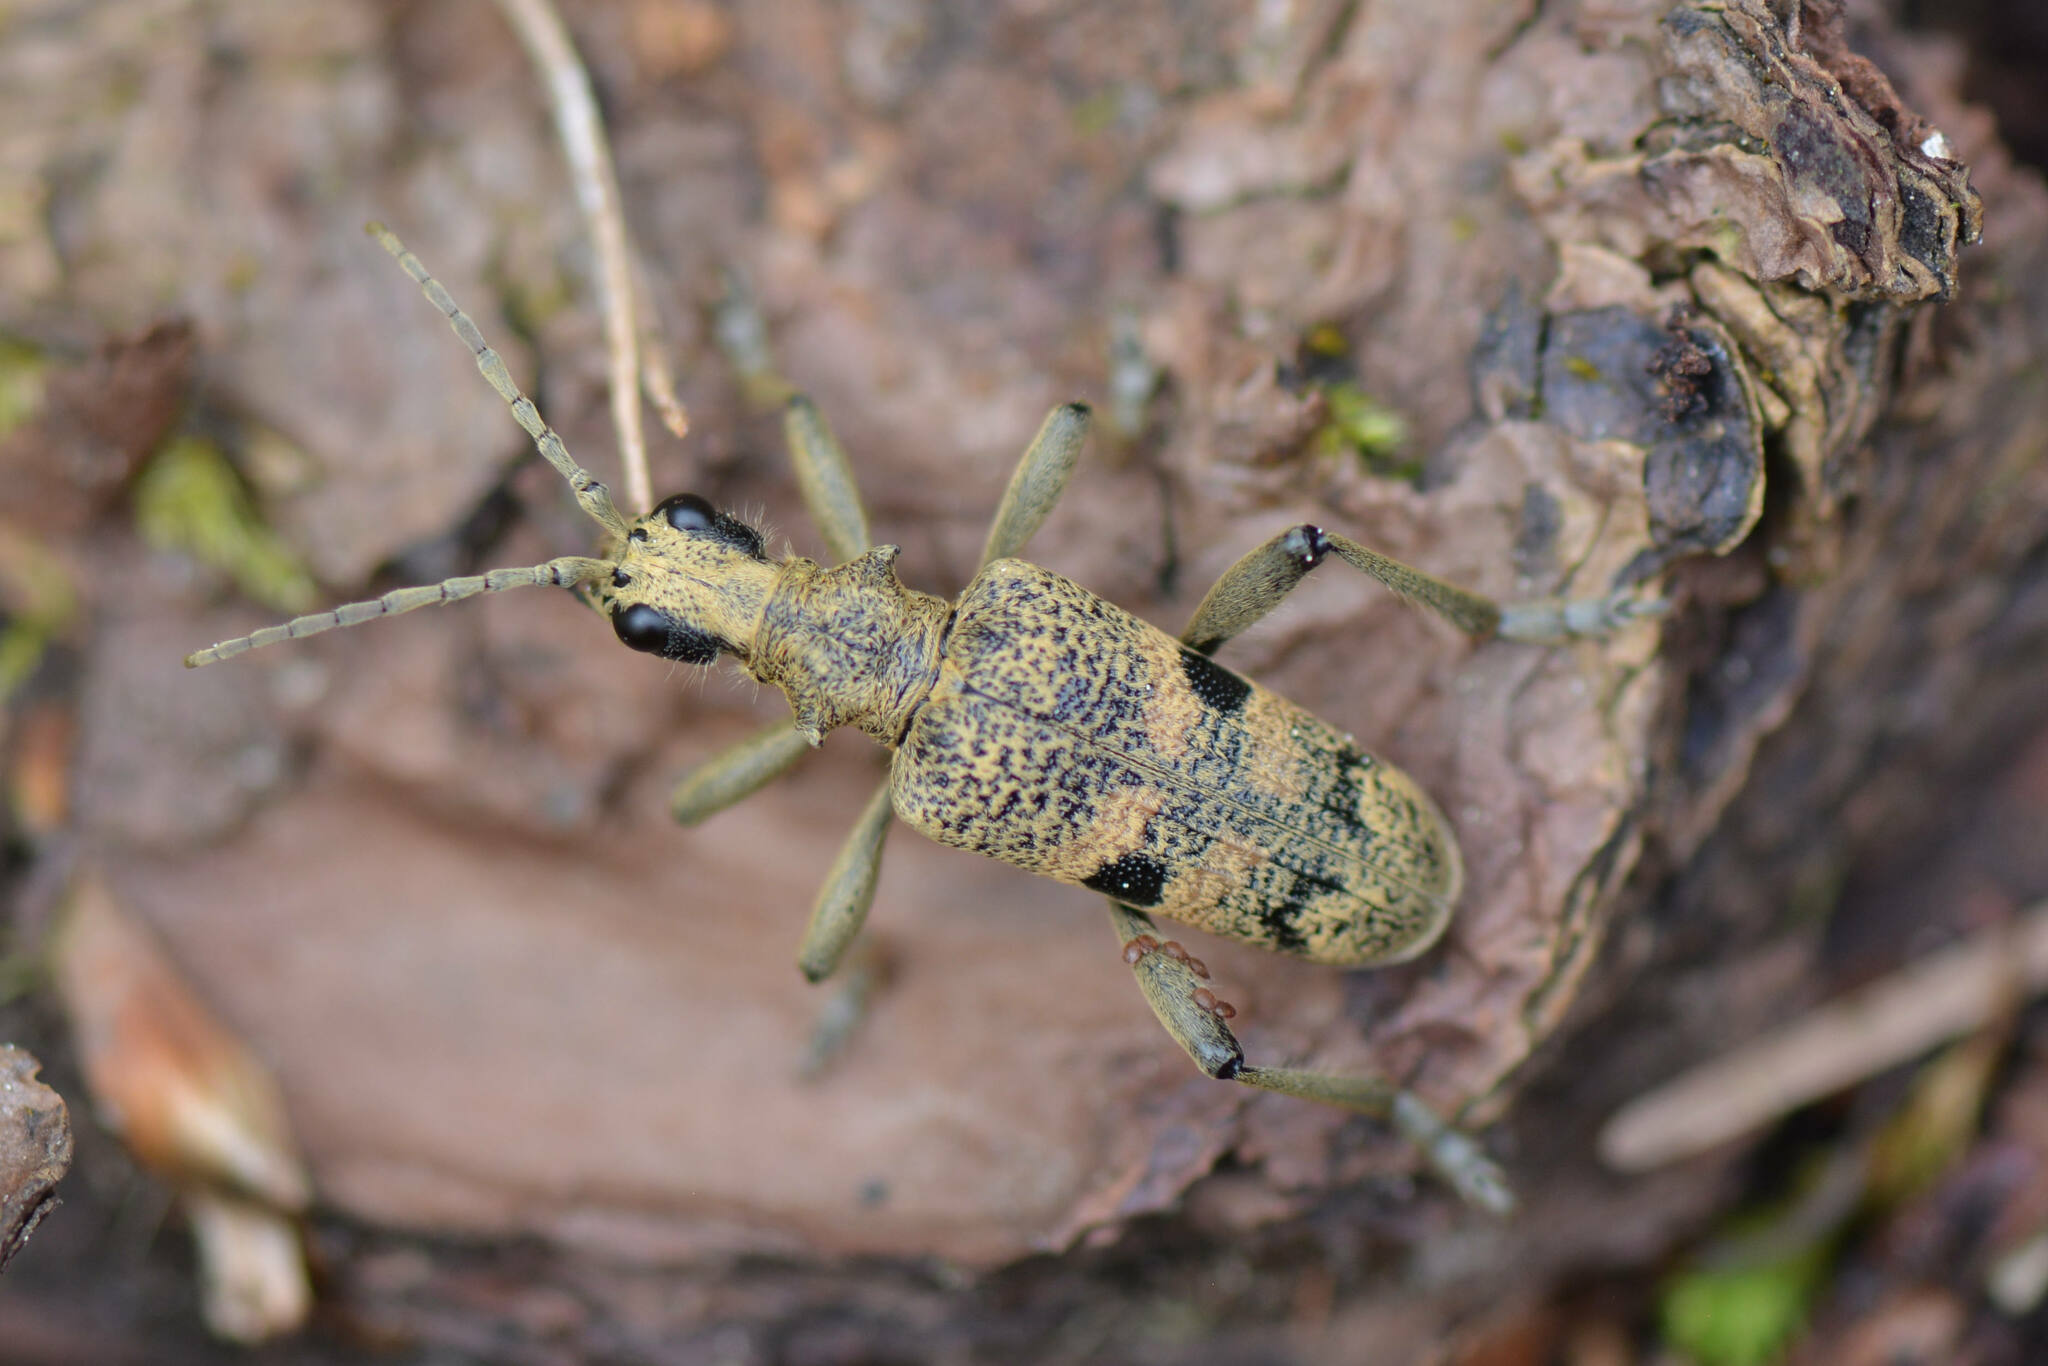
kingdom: Animalia
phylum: Arthropoda
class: Insecta
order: Coleoptera
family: Cerambycidae
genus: Rhagium
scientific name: Rhagium mordax
